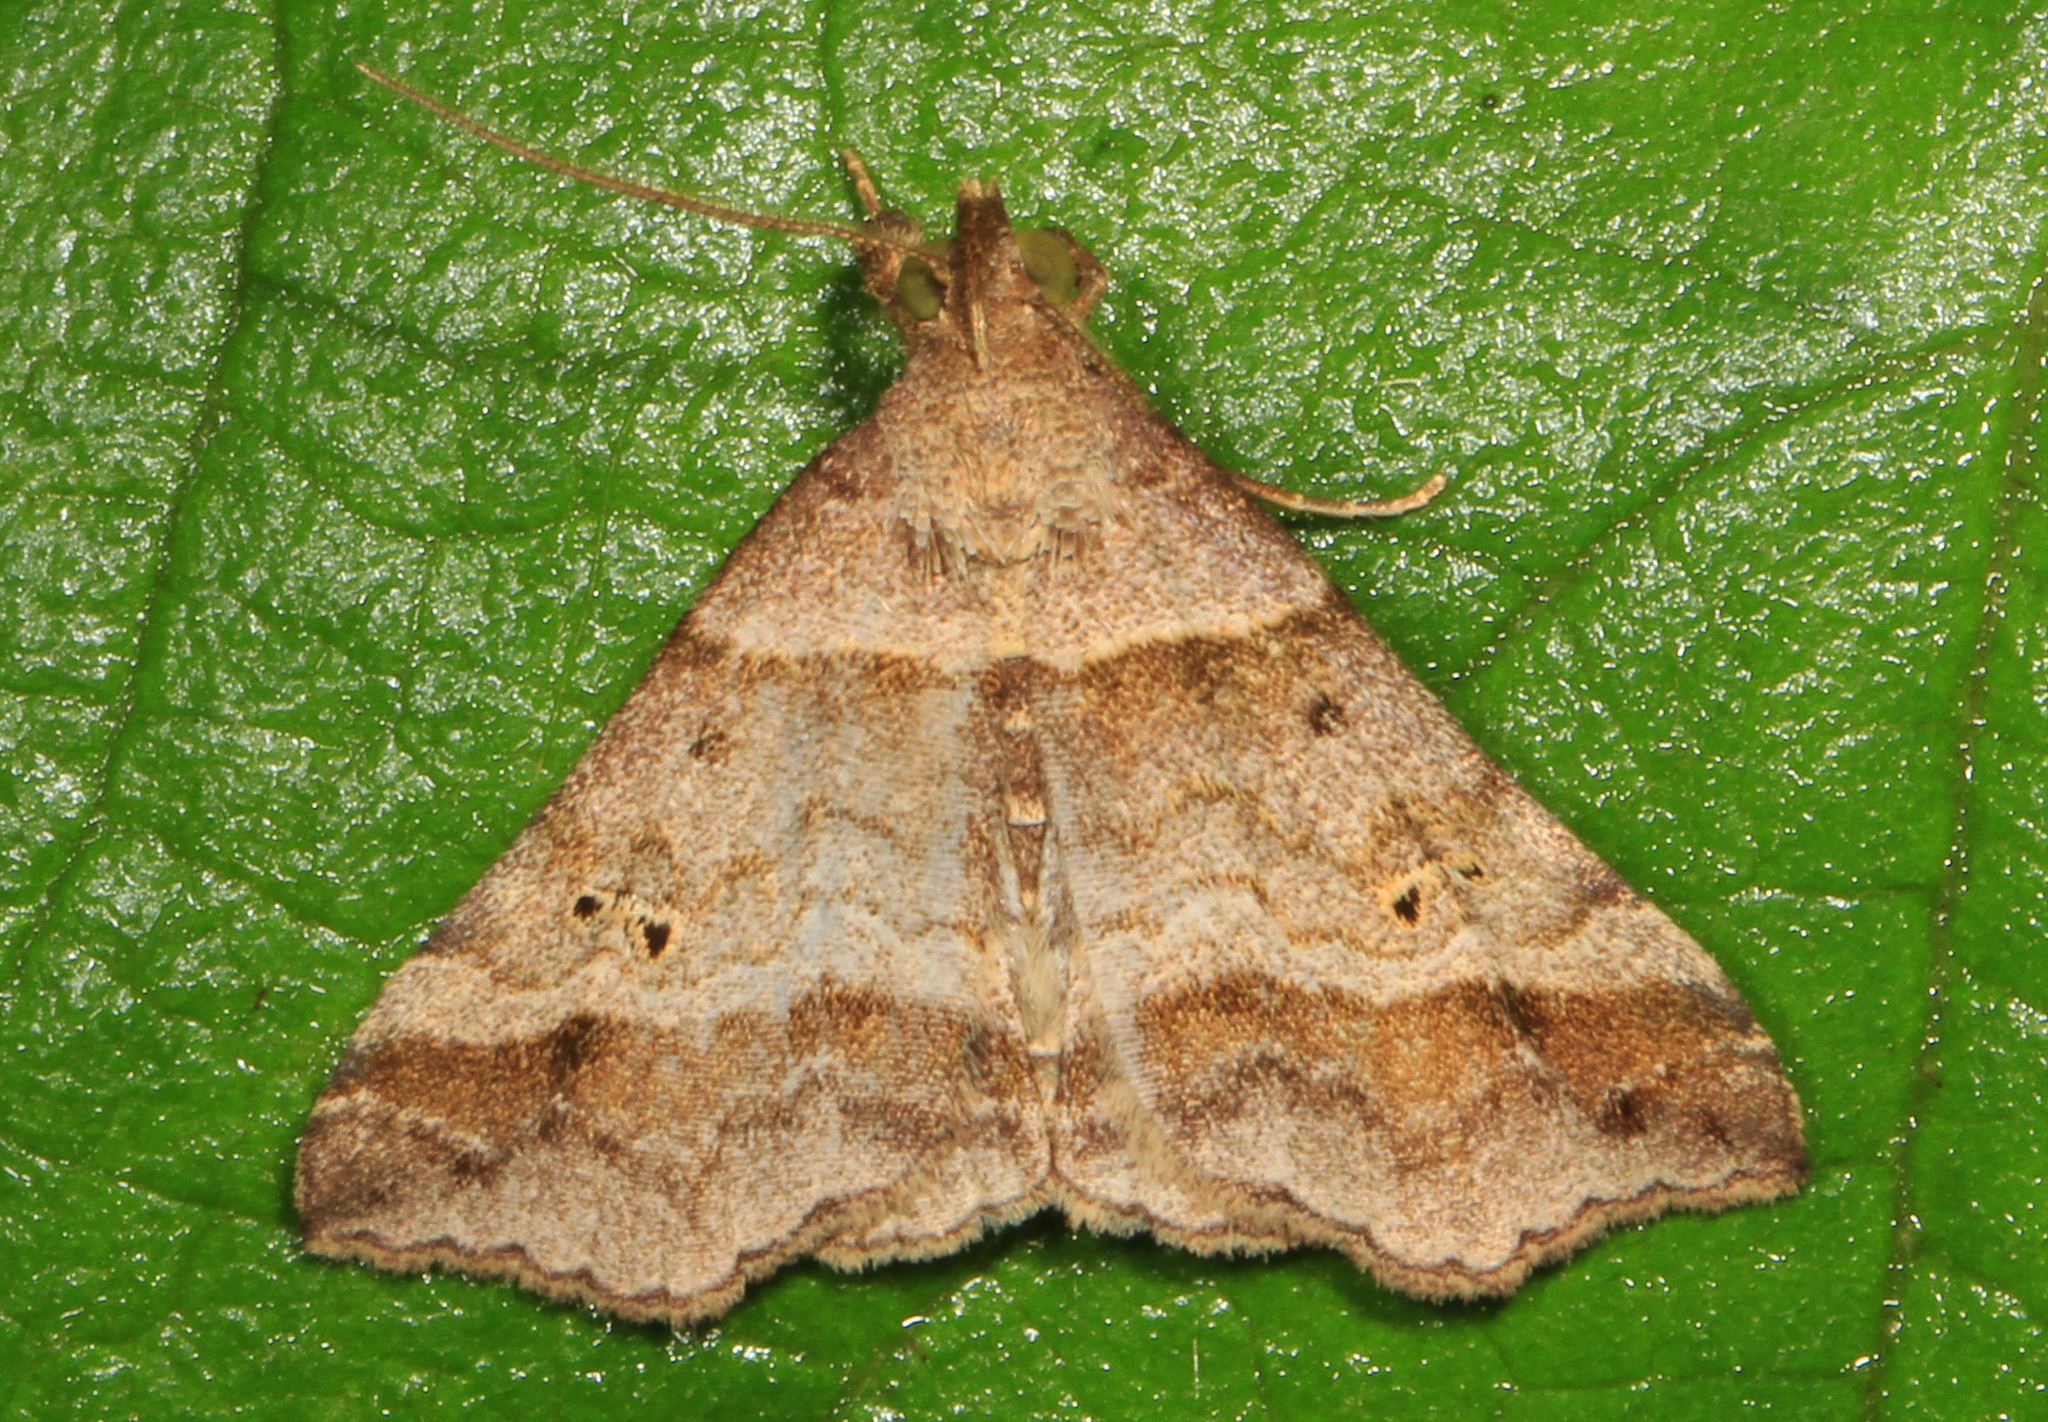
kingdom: Animalia
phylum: Arthropoda
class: Insecta
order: Lepidoptera
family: Erebidae
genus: Phaeolita
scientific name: Phaeolita pyramusalis
